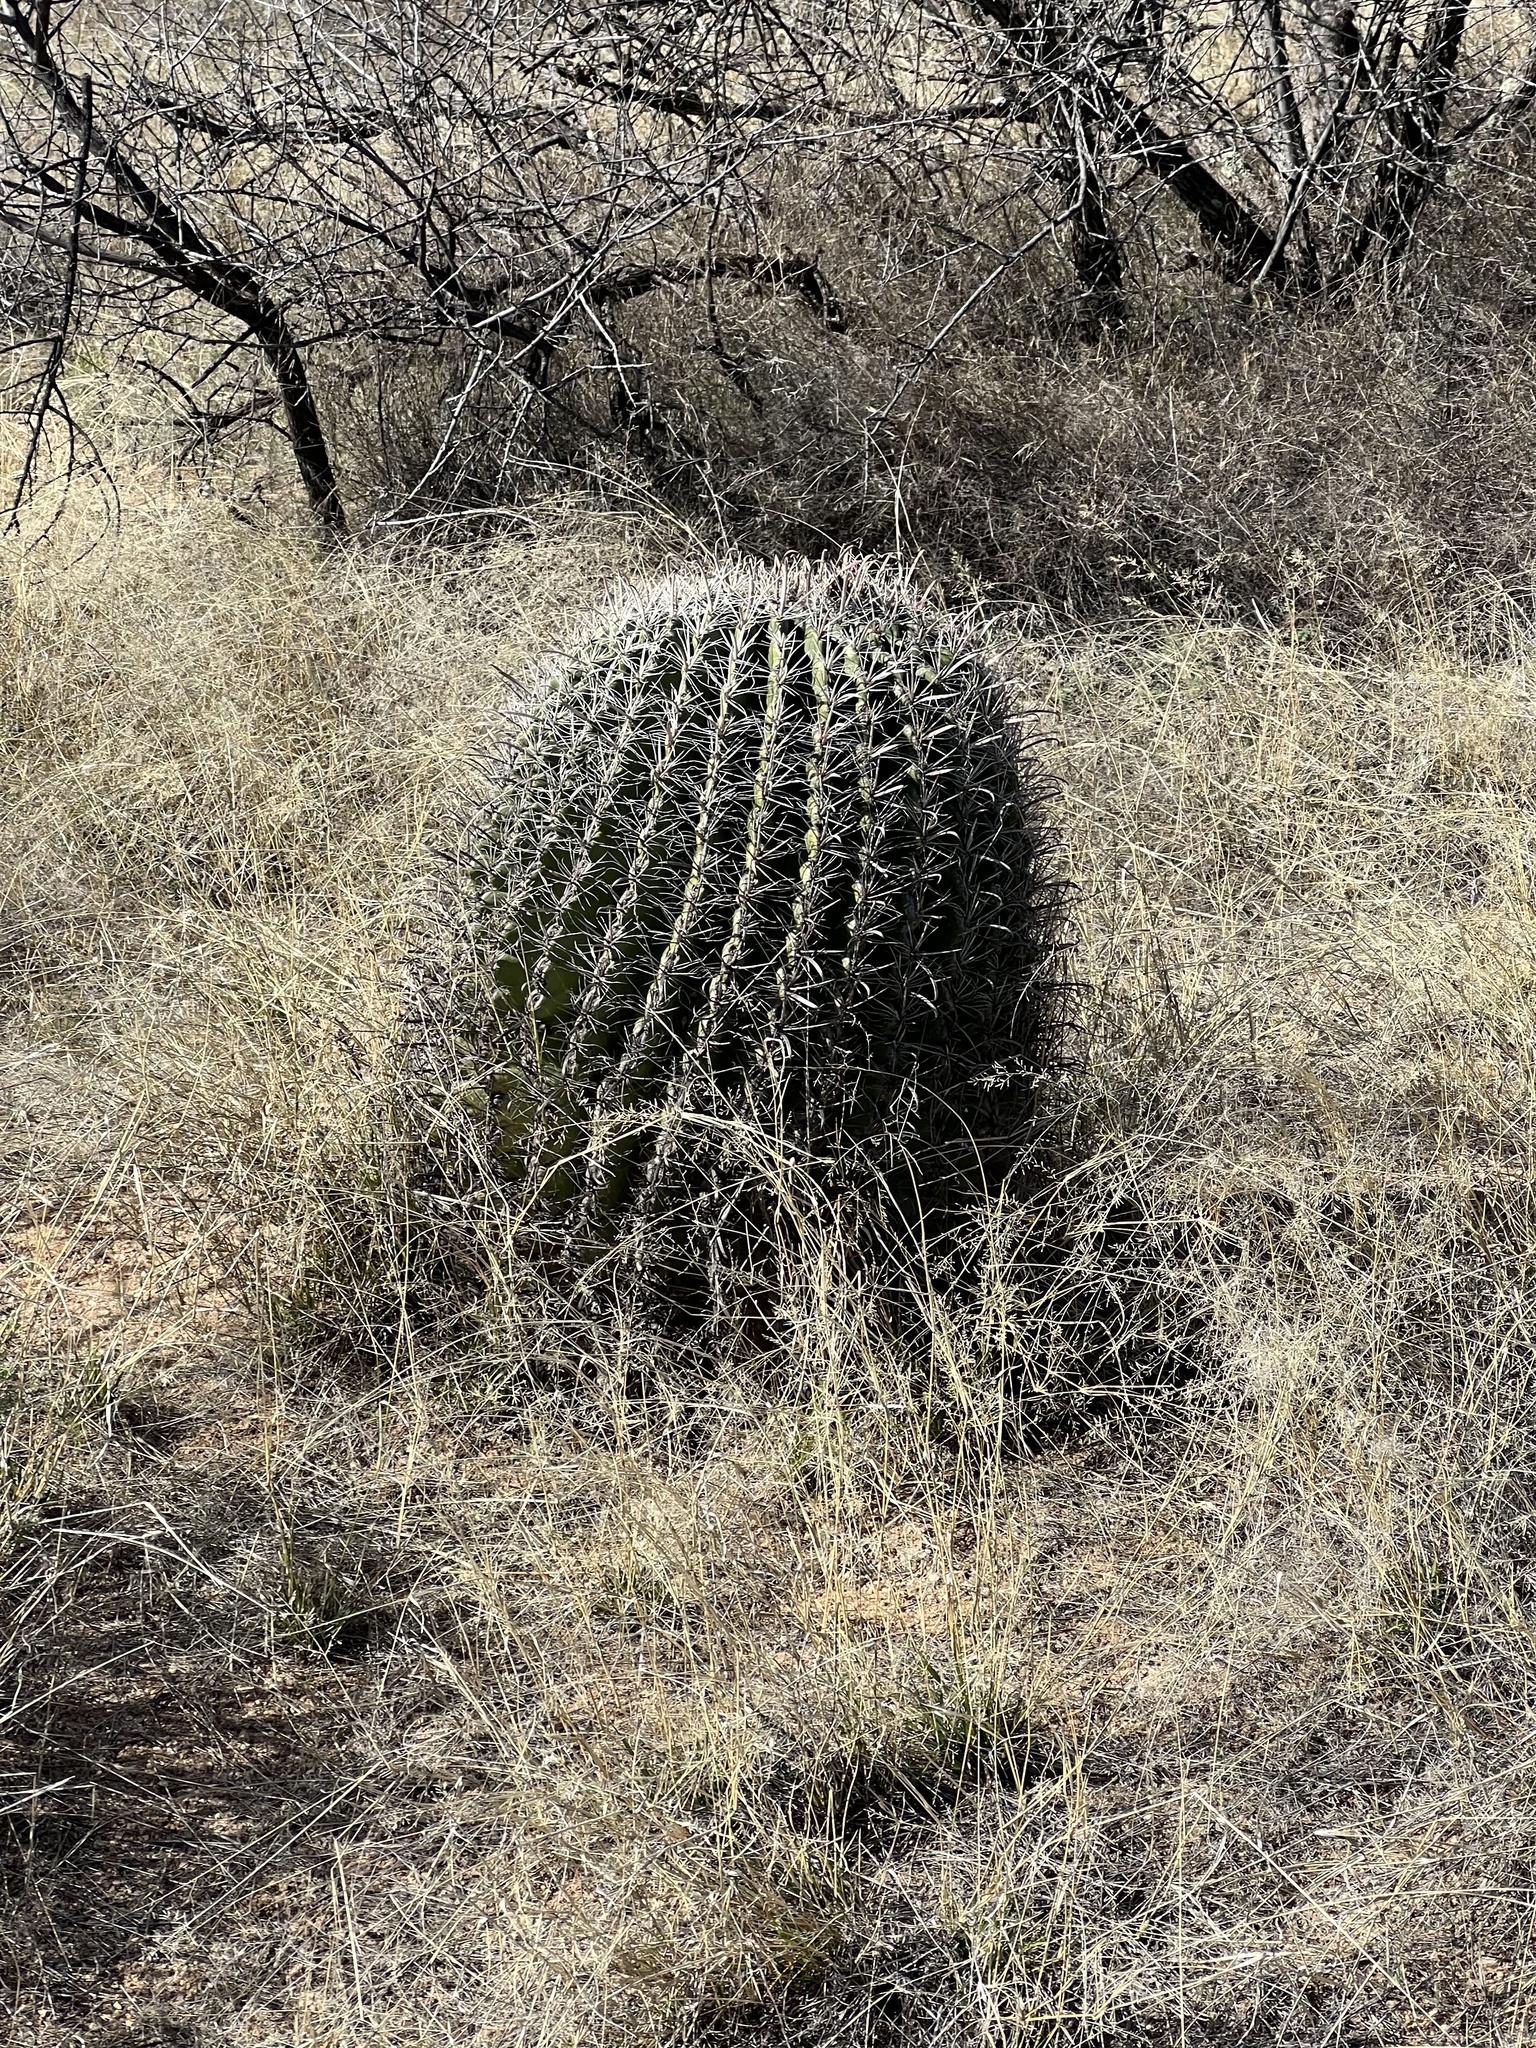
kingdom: Plantae
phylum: Tracheophyta
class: Magnoliopsida
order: Caryophyllales
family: Cactaceae
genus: Ferocactus
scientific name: Ferocactus wislizeni
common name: Candy barrel cactus
